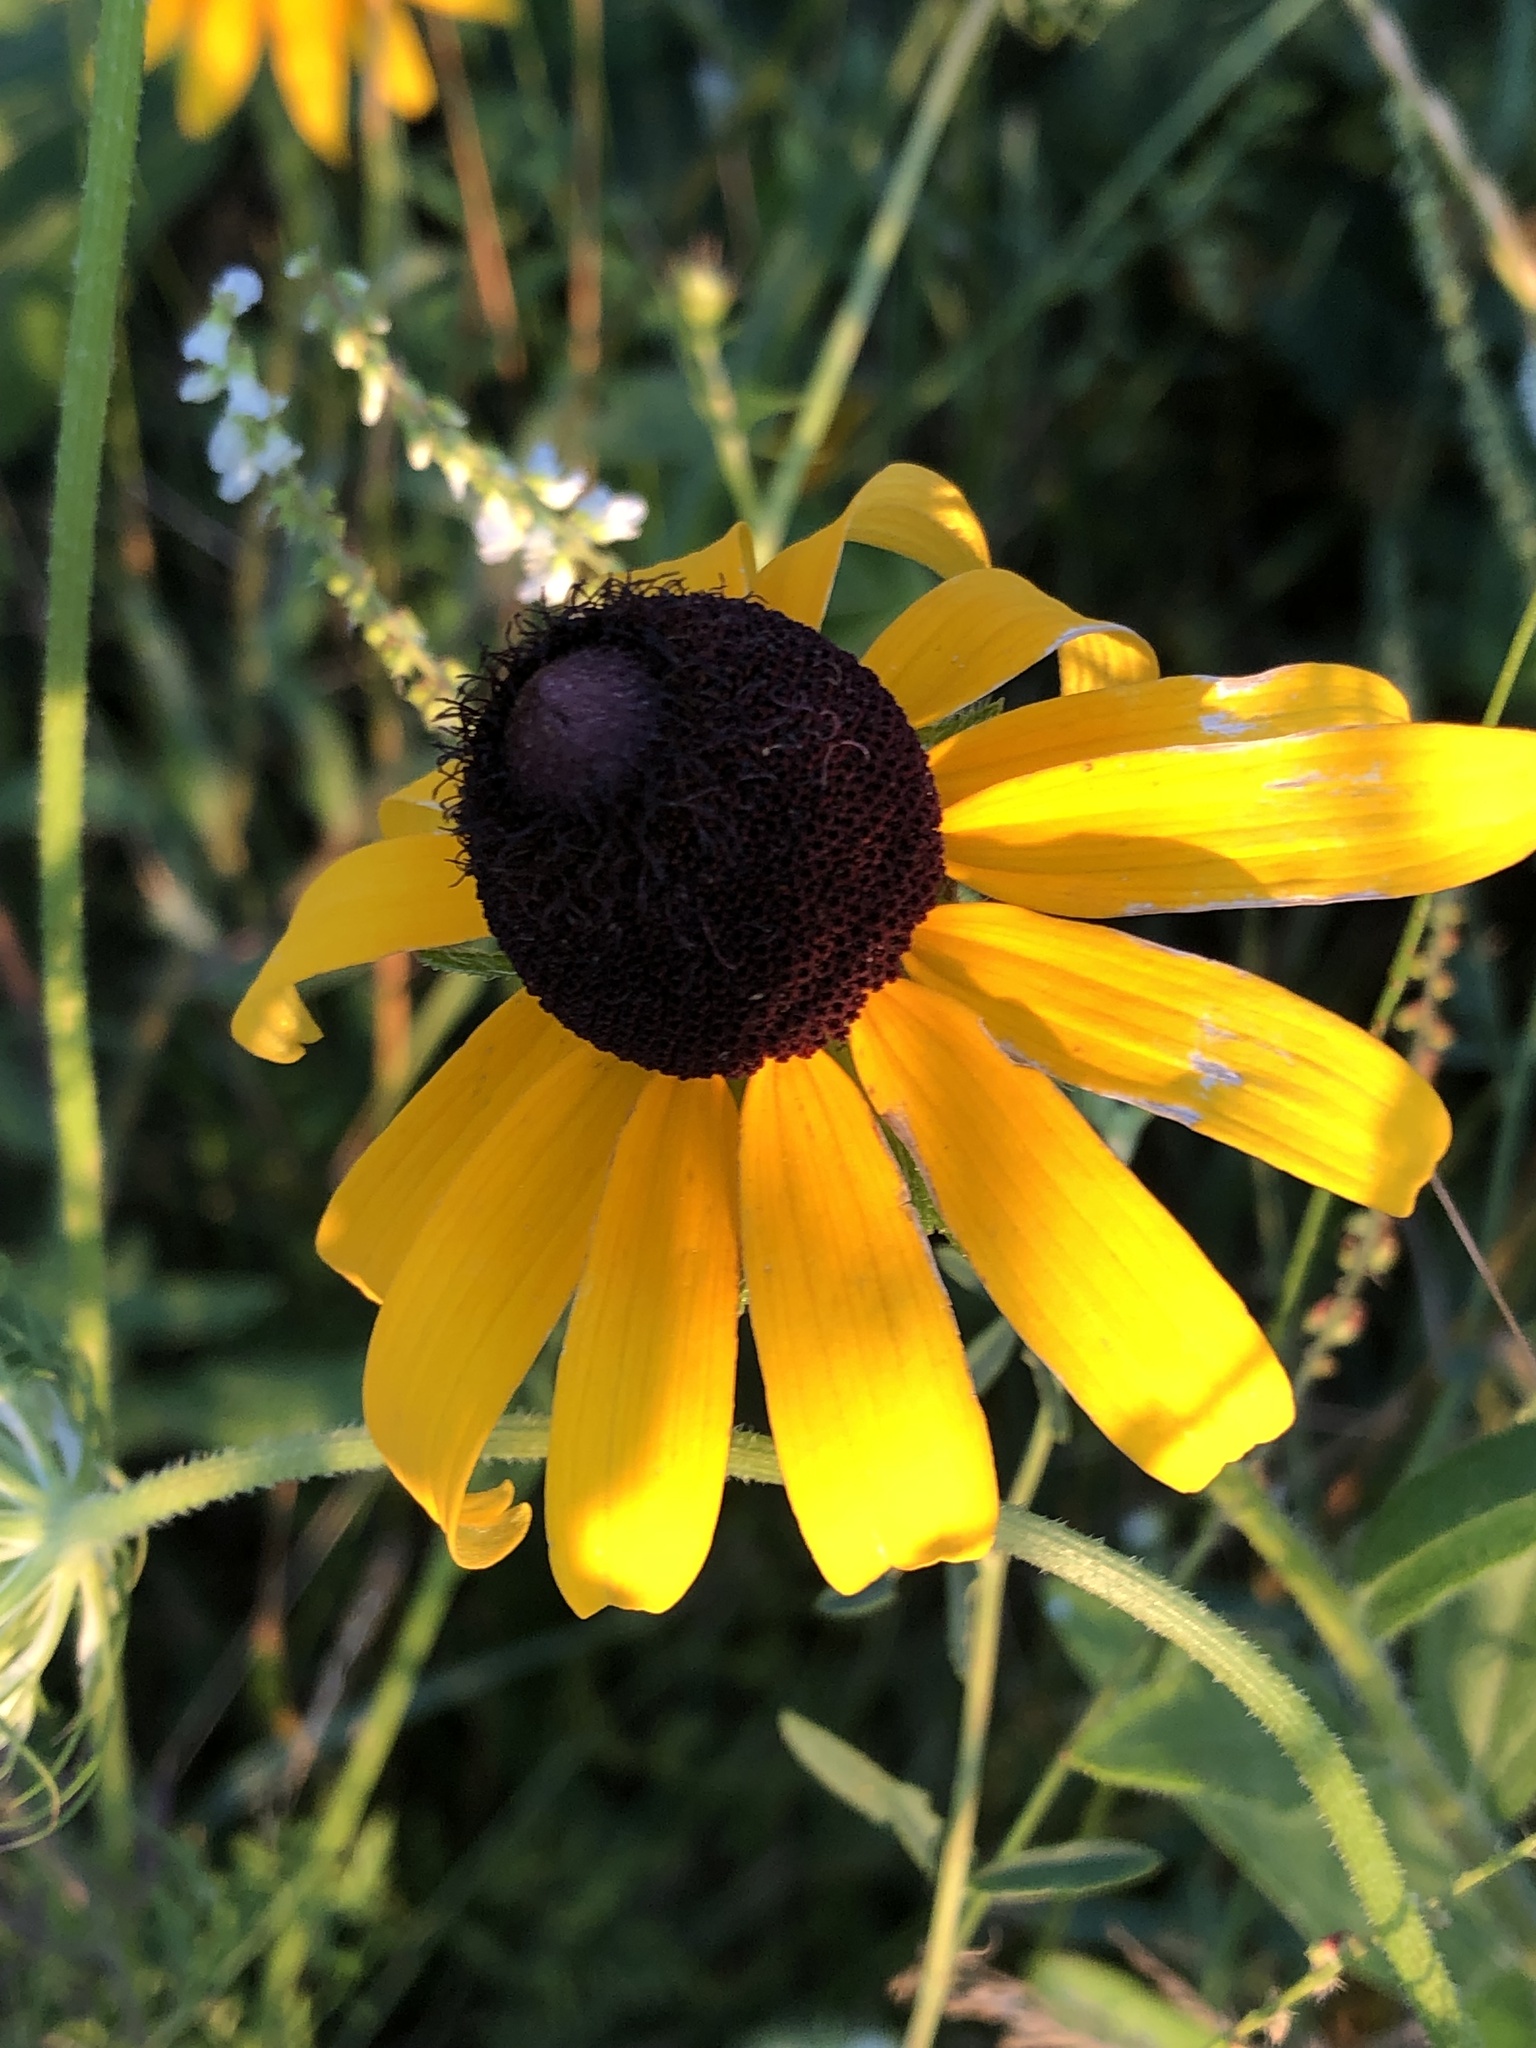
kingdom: Plantae
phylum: Tracheophyta
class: Magnoliopsida
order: Asterales
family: Asteraceae
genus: Rudbeckia
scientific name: Rudbeckia hirta
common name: Black-eyed-susan
